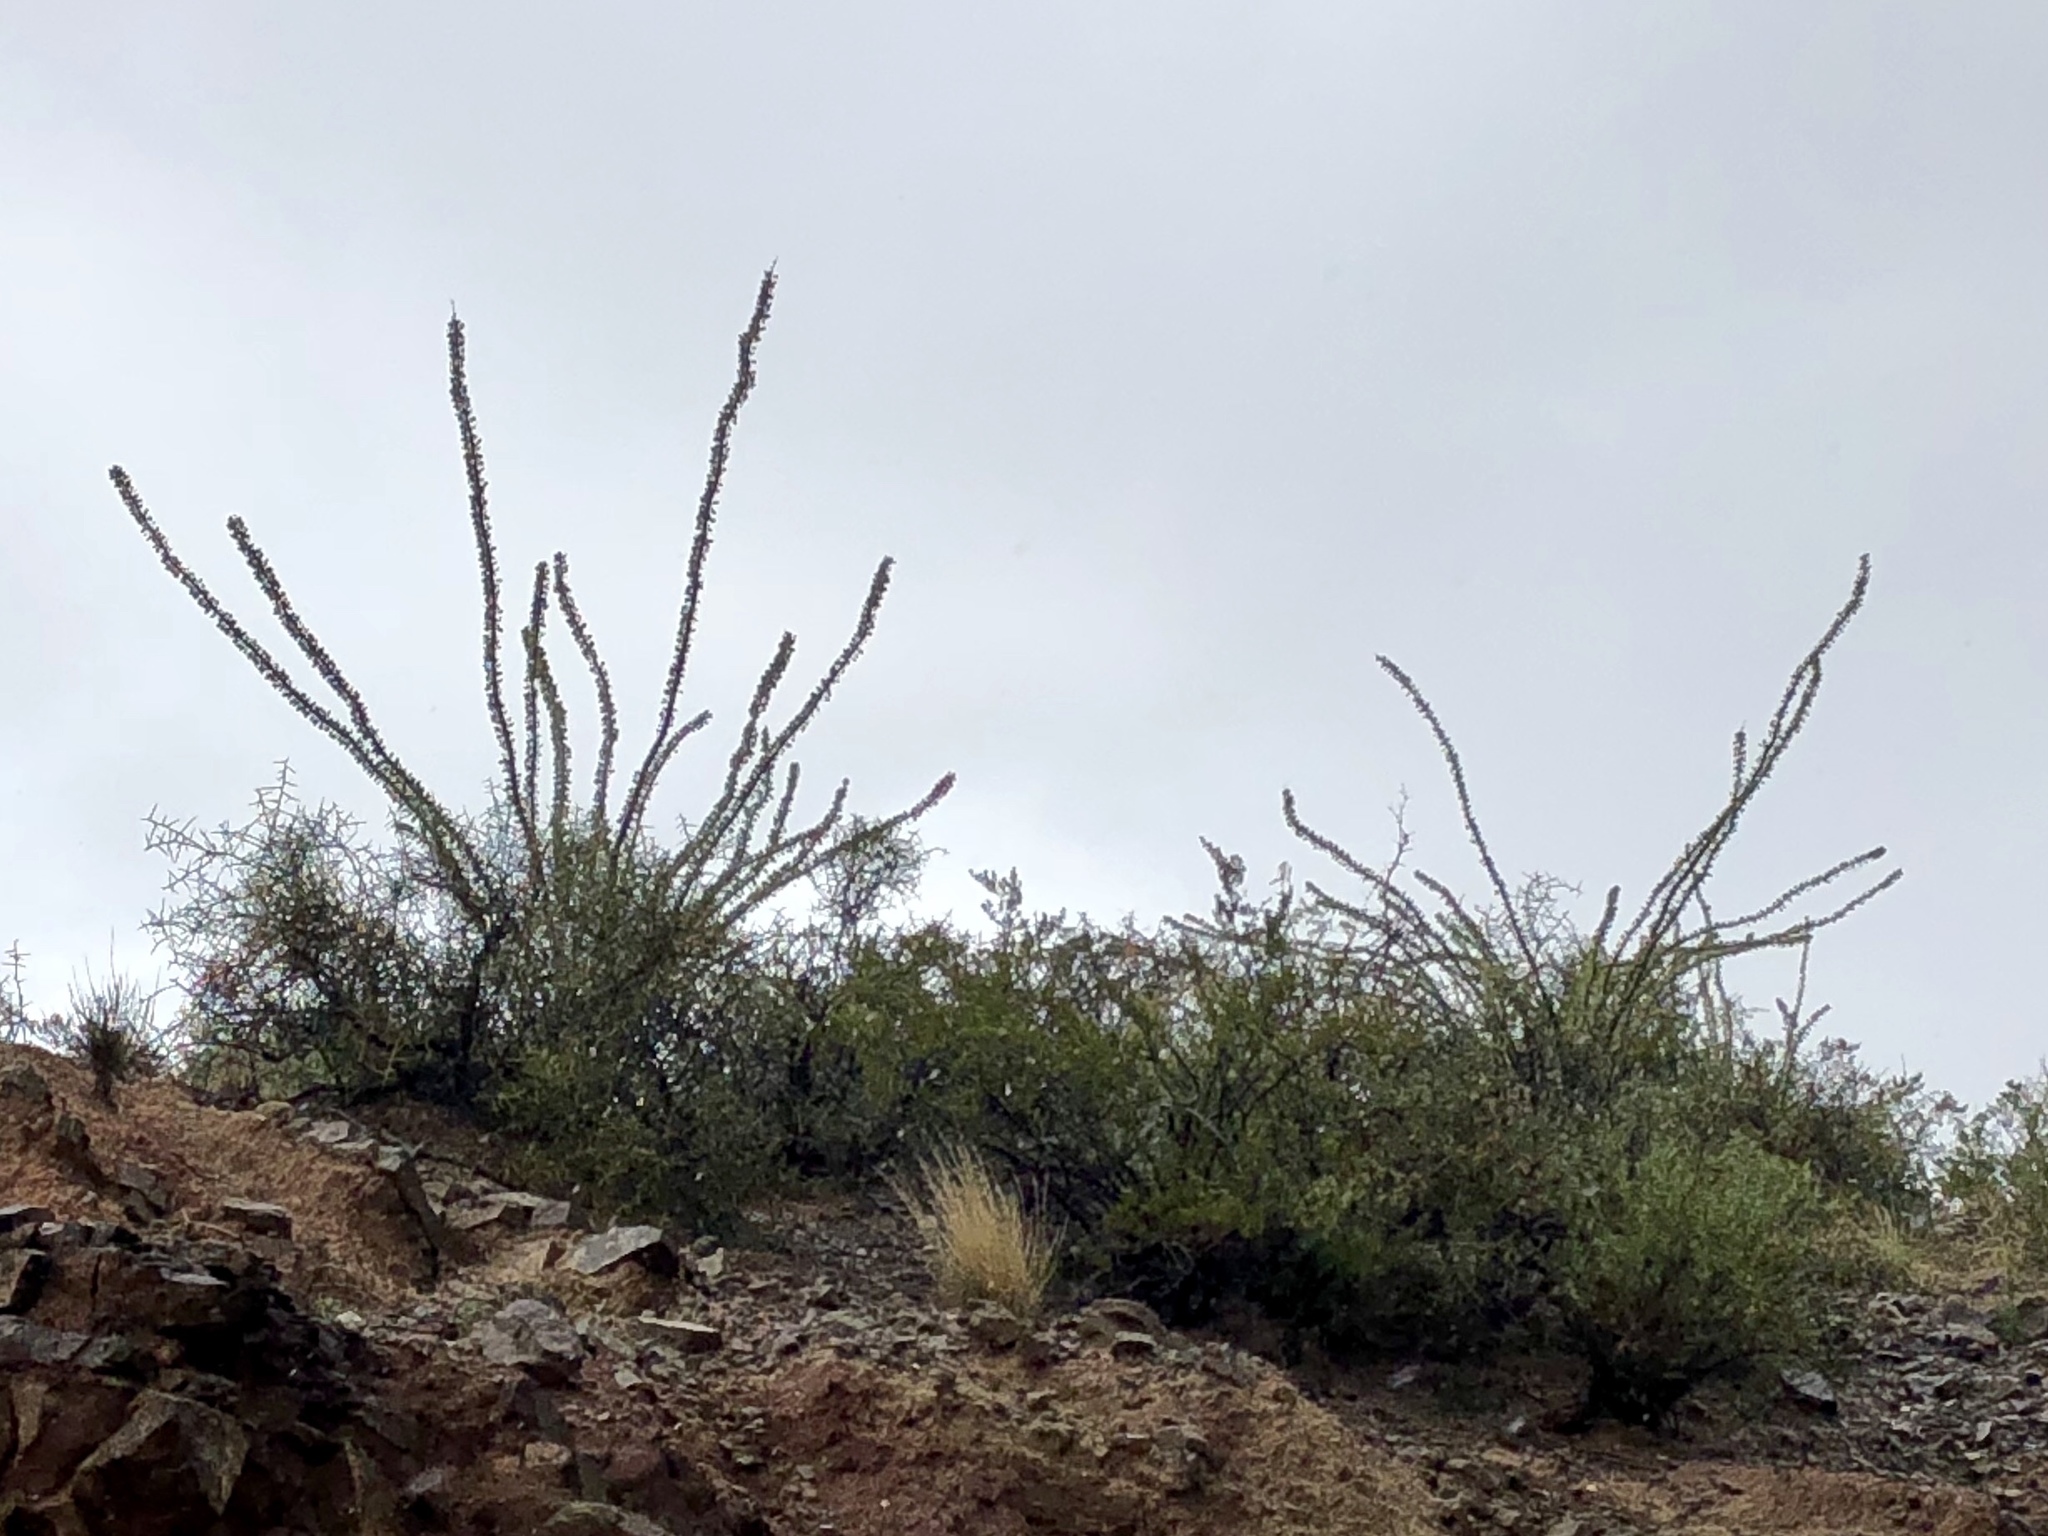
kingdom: Plantae
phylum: Tracheophyta
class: Magnoliopsida
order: Ericales
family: Fouquieriaceae
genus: Fouquieria
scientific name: Fouquieria splendens
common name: Vine-cactus
